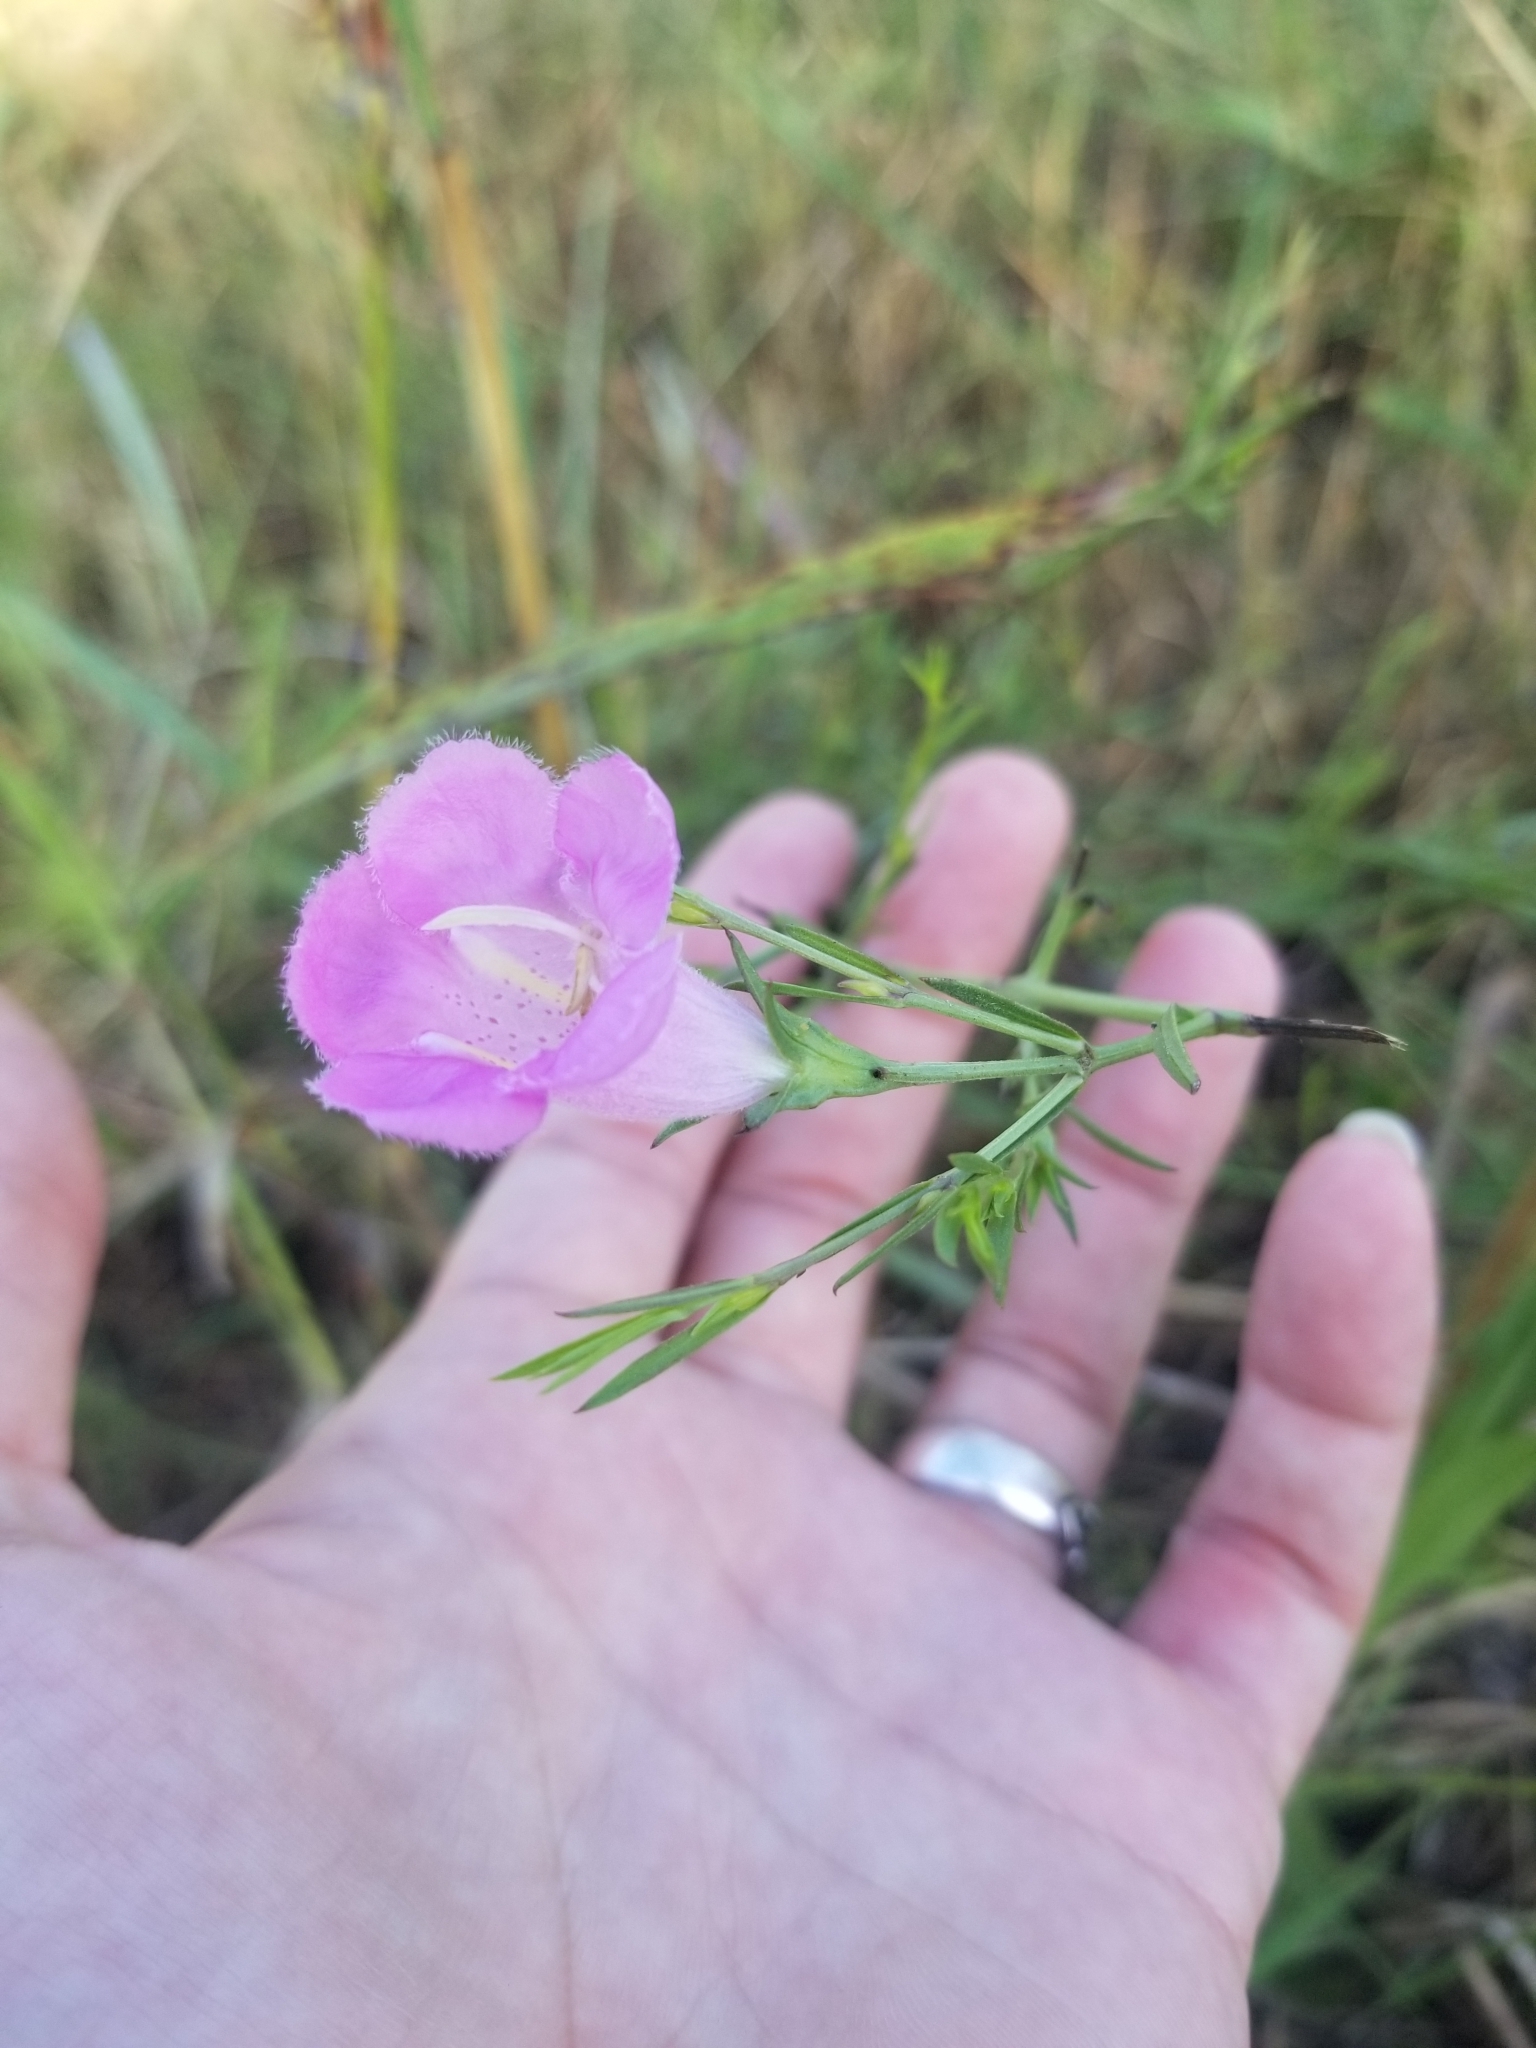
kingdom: Plantae
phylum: Tracheophyta
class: Magnoliopsida
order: Lamiales
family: Orobanchaceae
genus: Agalinis
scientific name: Agalinis heterophylla
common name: Prairie agalinis
